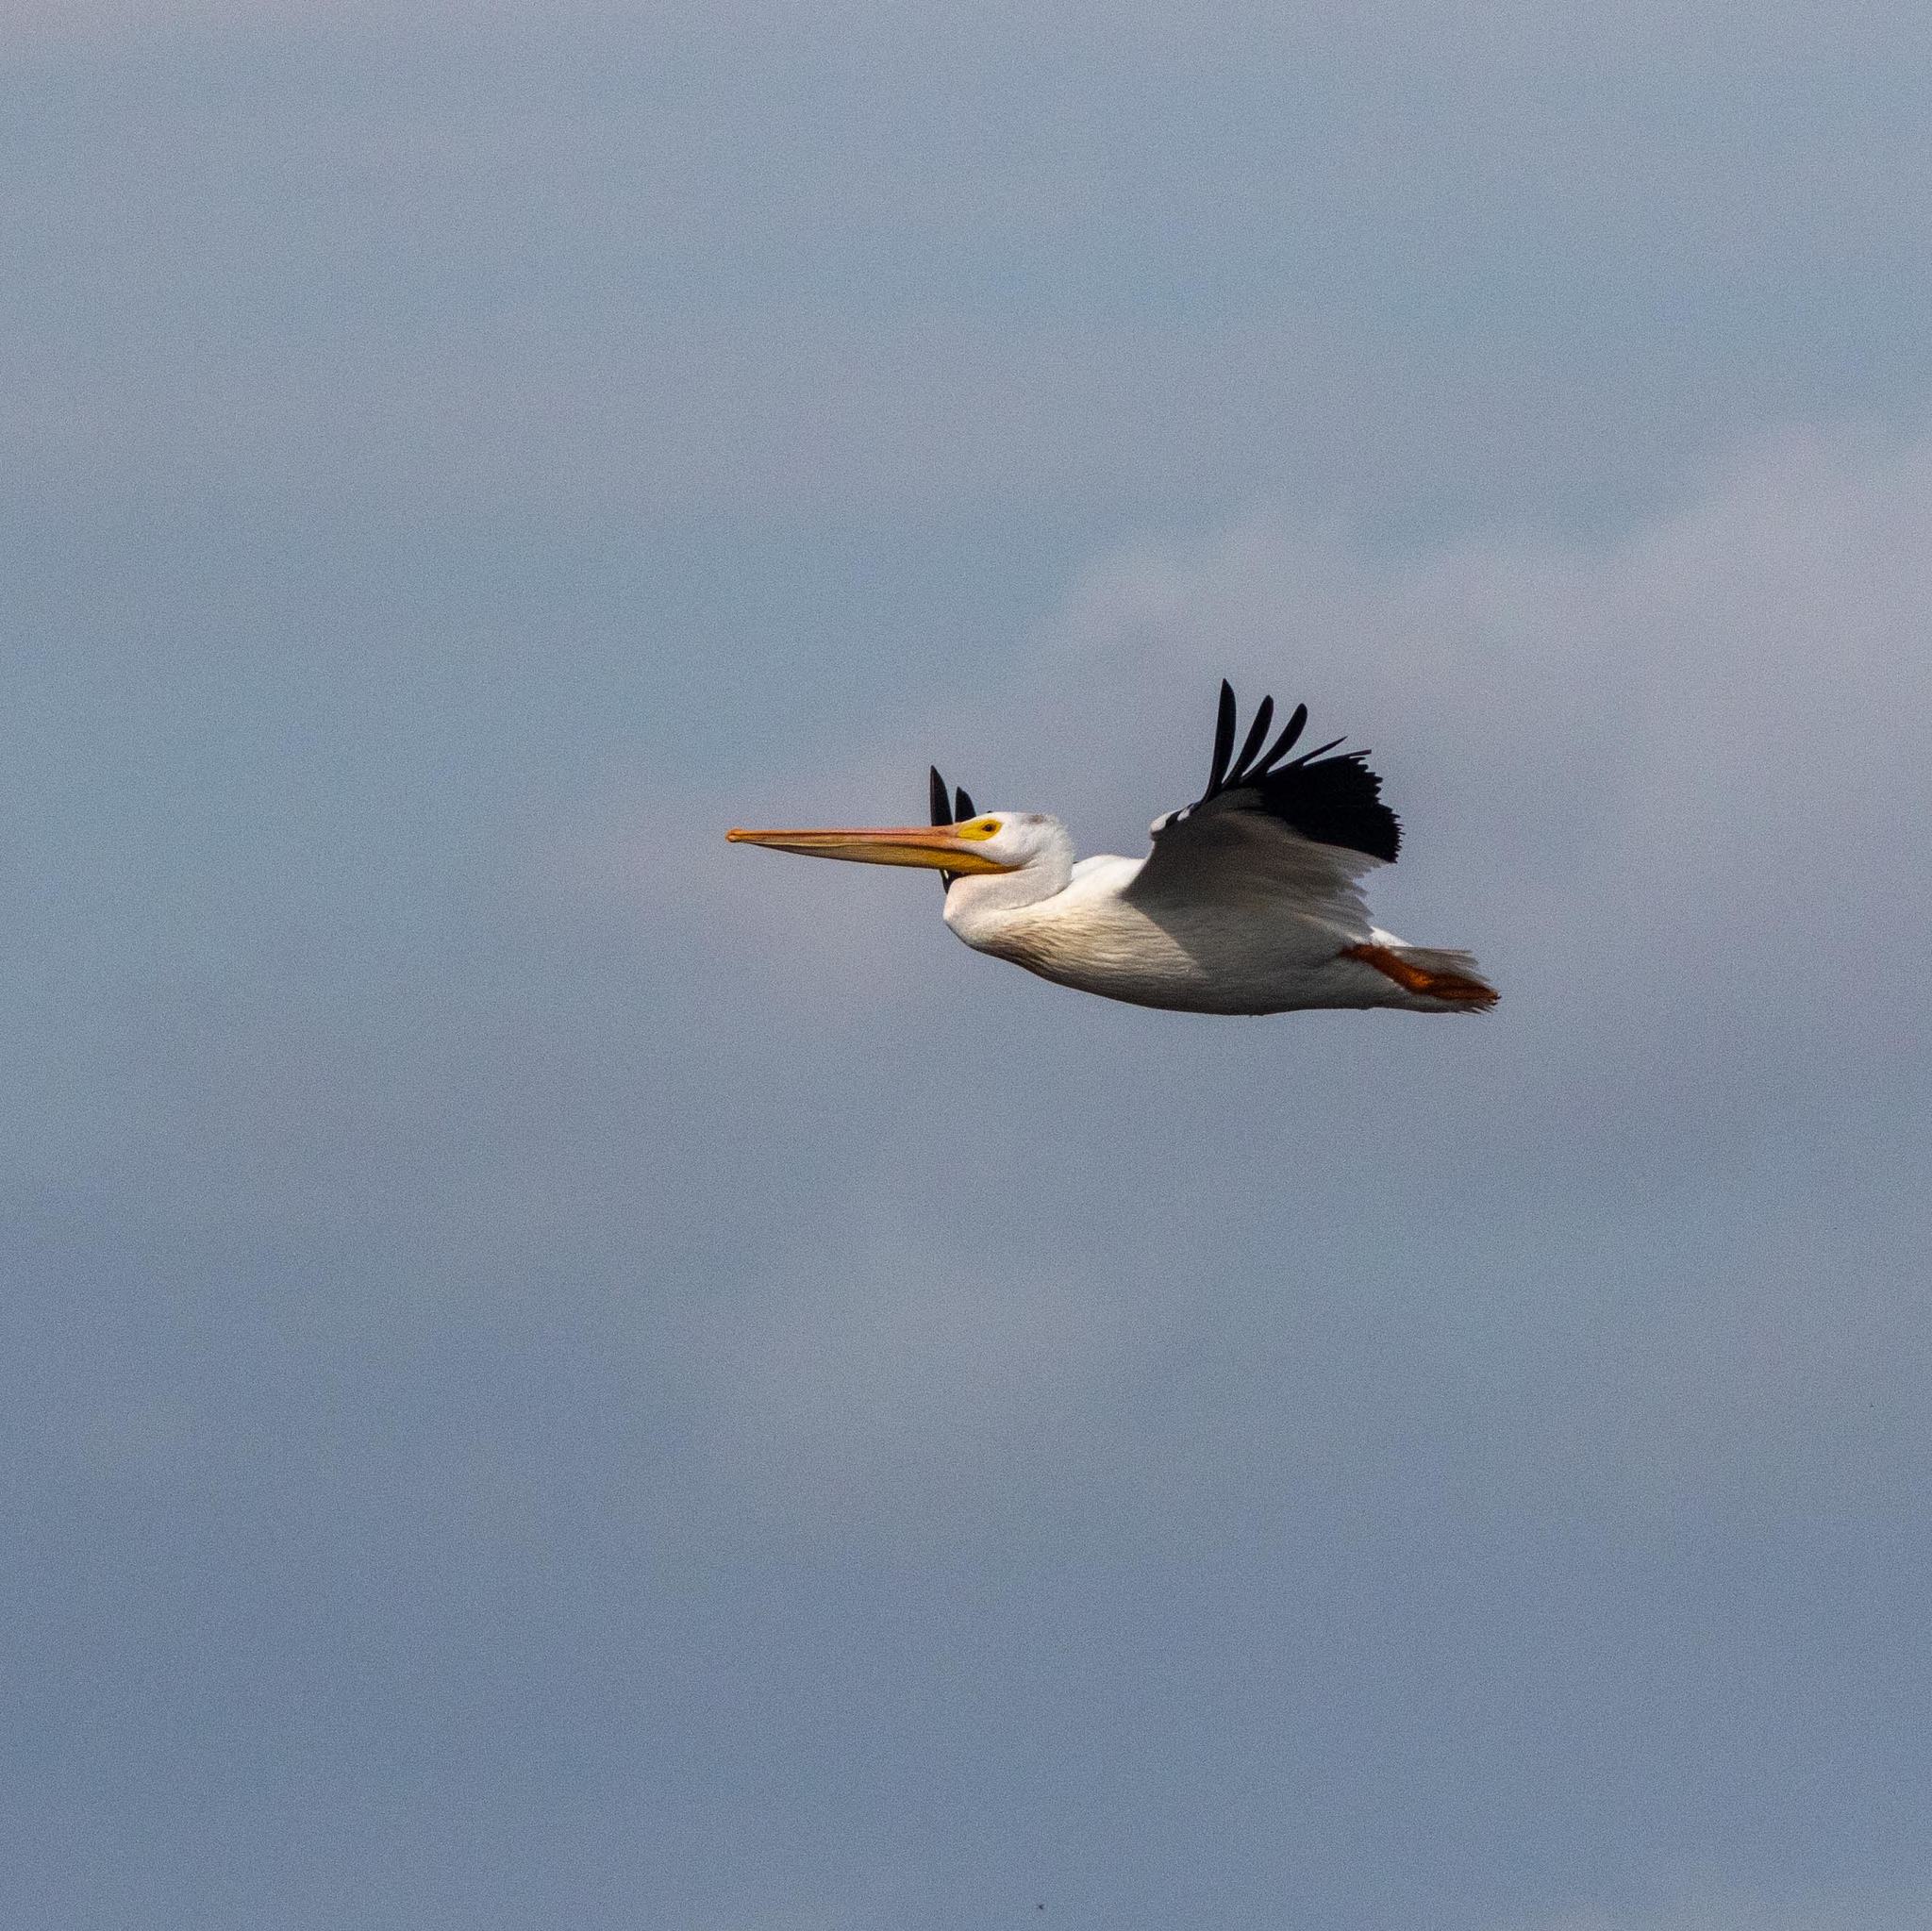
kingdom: Animalia
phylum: Chordata
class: Aves
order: Pelecaniformes
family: Pelecanidae
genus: Pelecanus
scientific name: Pelecanus erythrorhynchos
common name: American white pelican
